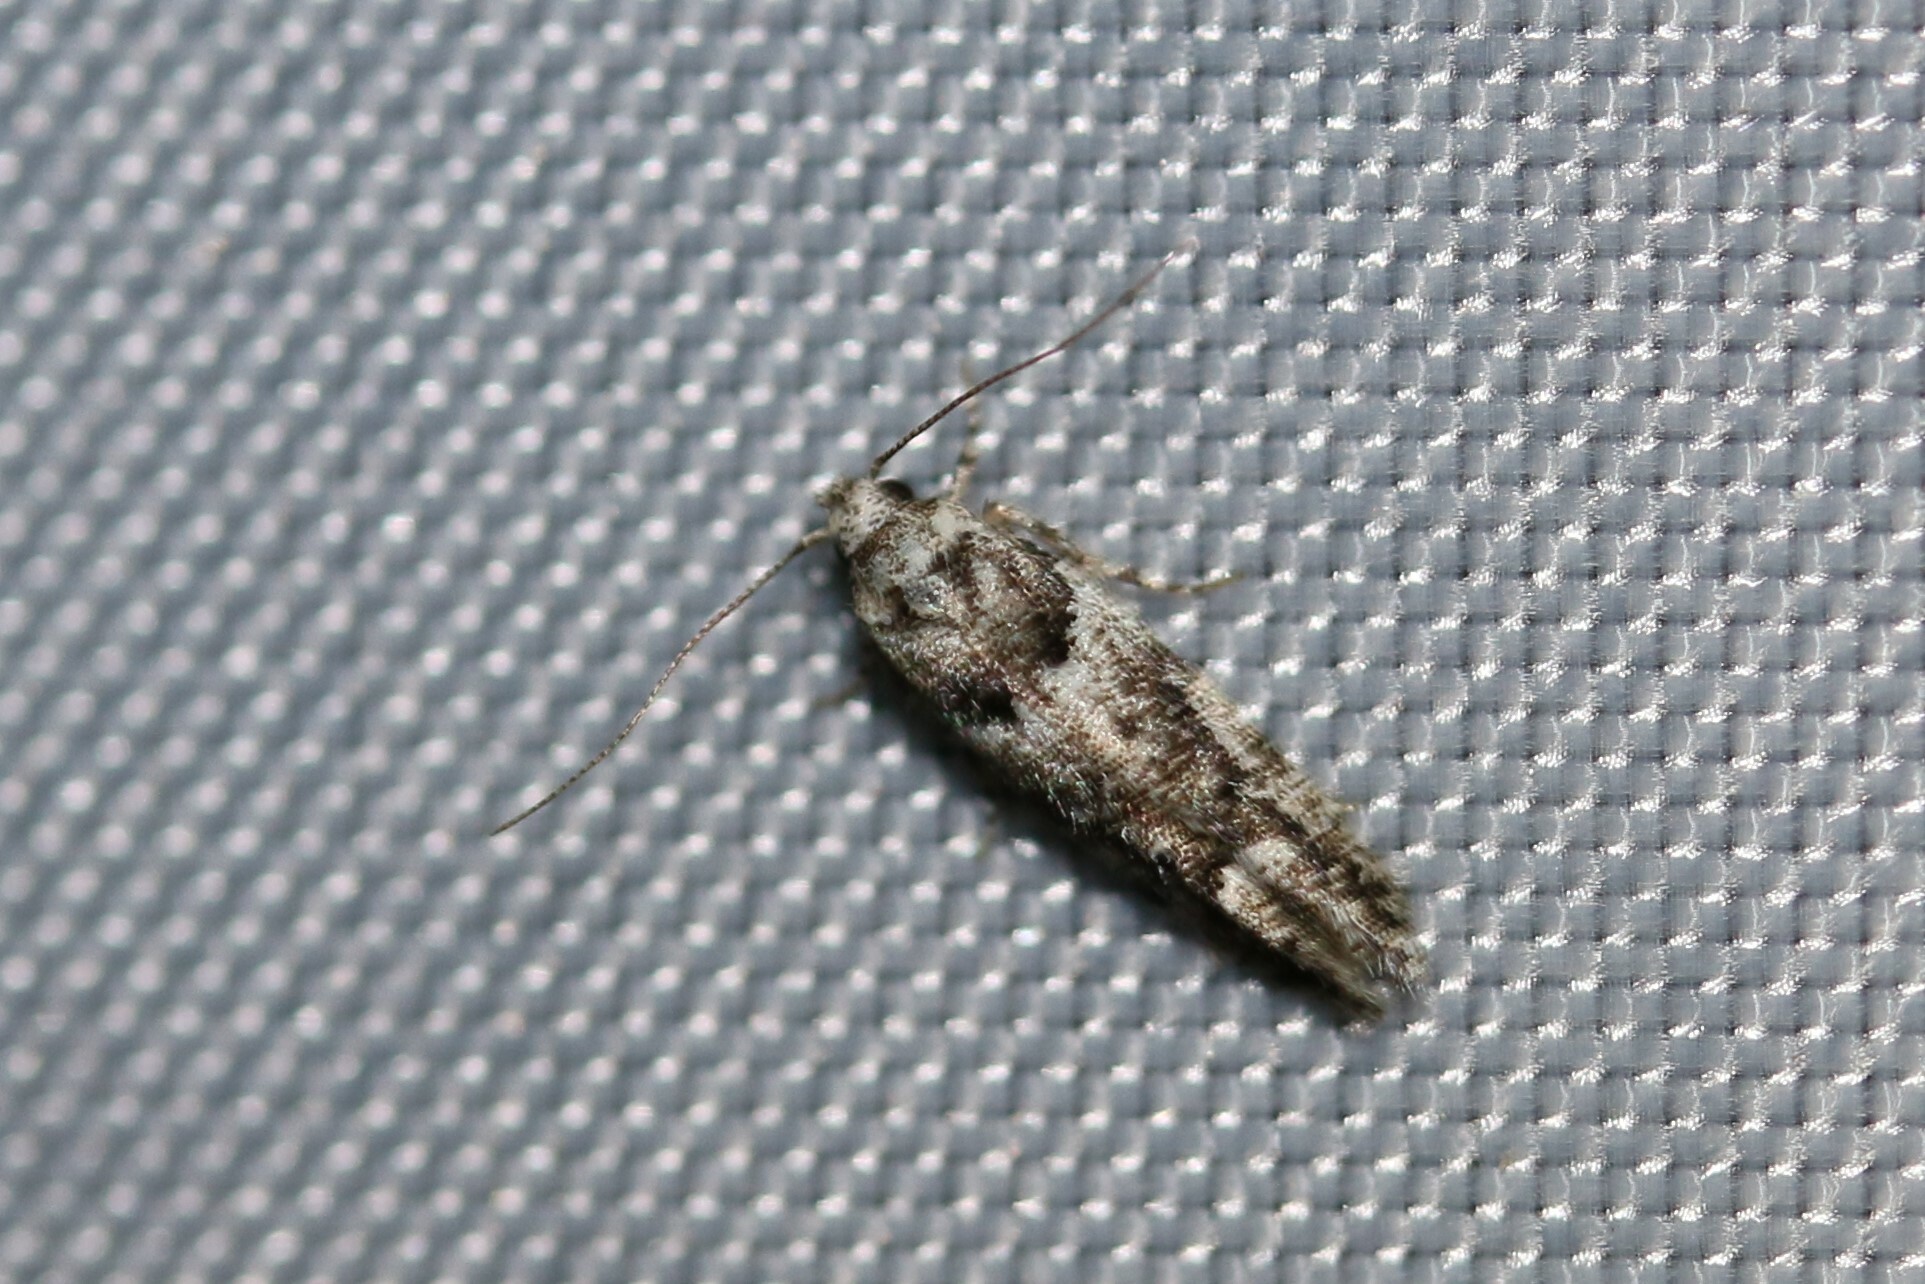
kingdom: Animalia
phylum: Arthropoda
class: Insecta
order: Lepidoptera
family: Gelechiidae
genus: Recurvaria
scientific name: Recurvaria nanella
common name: Gelechiid moth
